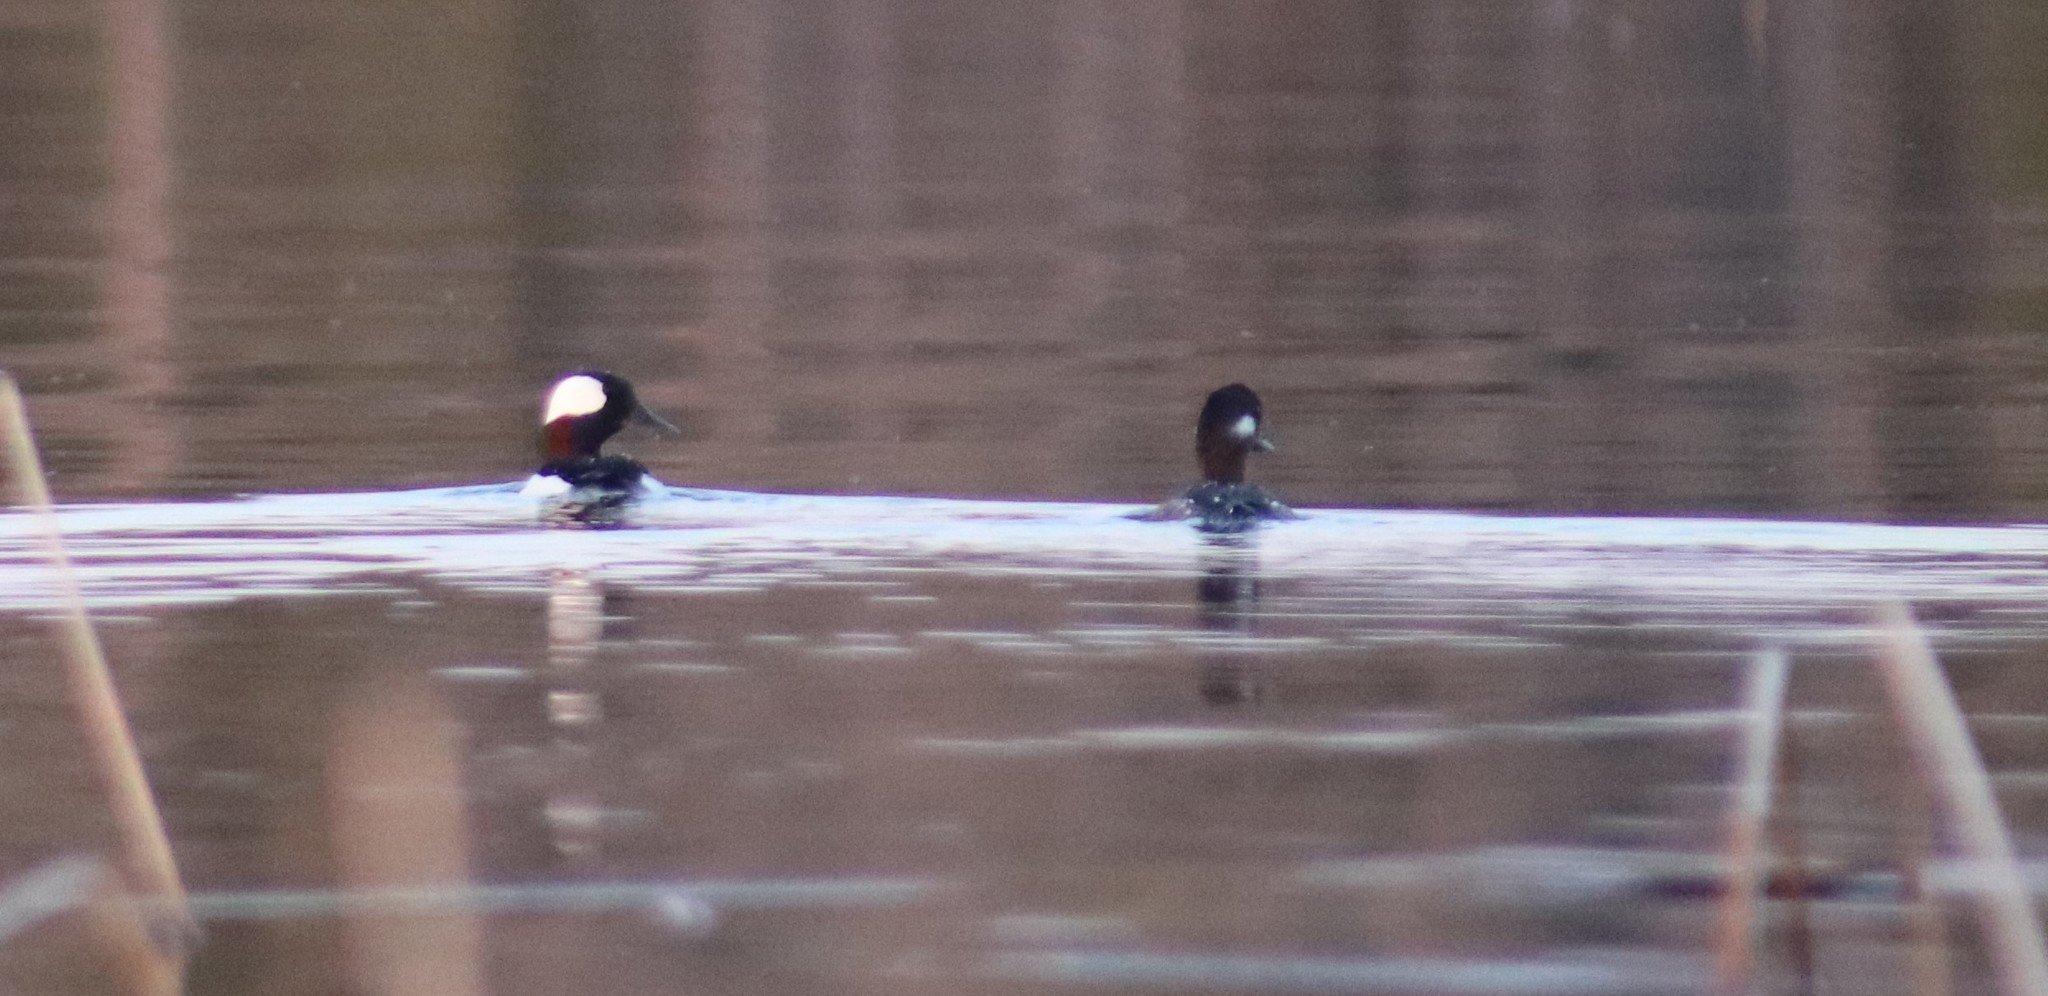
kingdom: Animalia
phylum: Chordata
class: Aves
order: Anseriformes
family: Anatidae
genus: Bucephala
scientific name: Bucephala albeola
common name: Bufflehead
